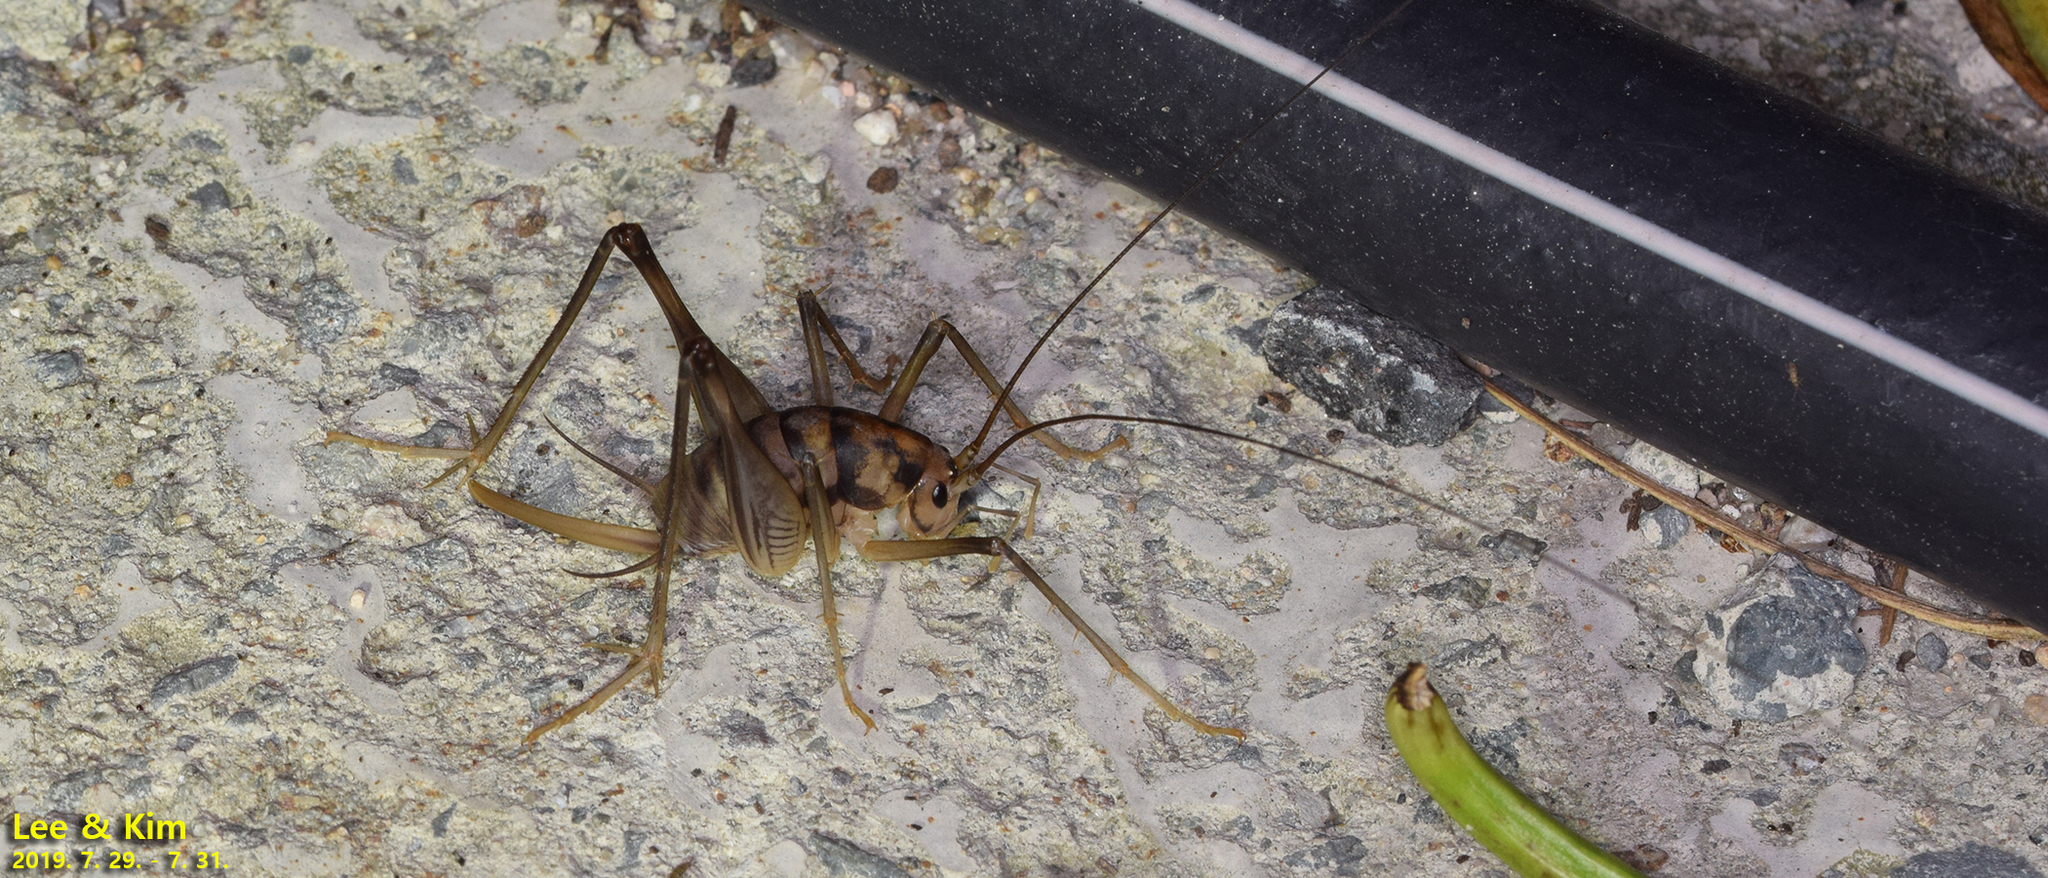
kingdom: Animalia
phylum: Arthropoda
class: Insecta
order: Orthoptera
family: Rhaphidophoridae
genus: Tachycines
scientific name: Tachycines asynamorus
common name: Greenhouse camel cricket
